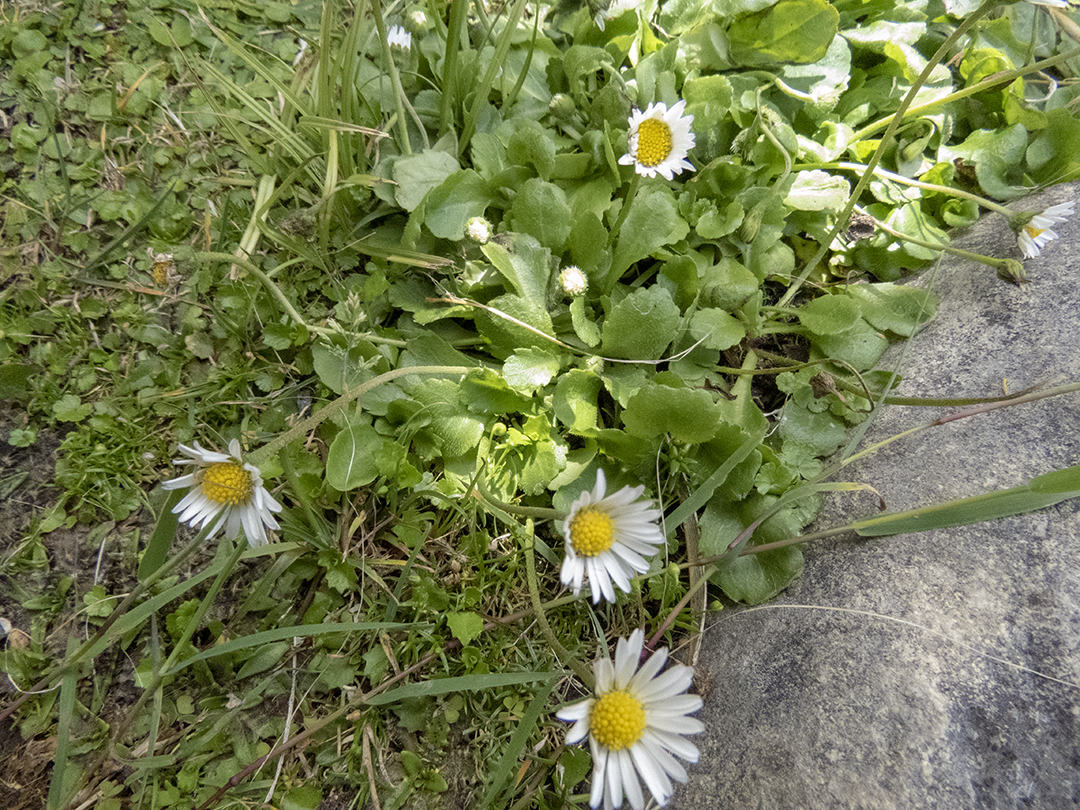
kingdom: Plantae
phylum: Tracheophyta
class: Magnoliopsida
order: Asterales
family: Asteraceae
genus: Bellis
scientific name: Bellis perennis
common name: Lawndaisy
